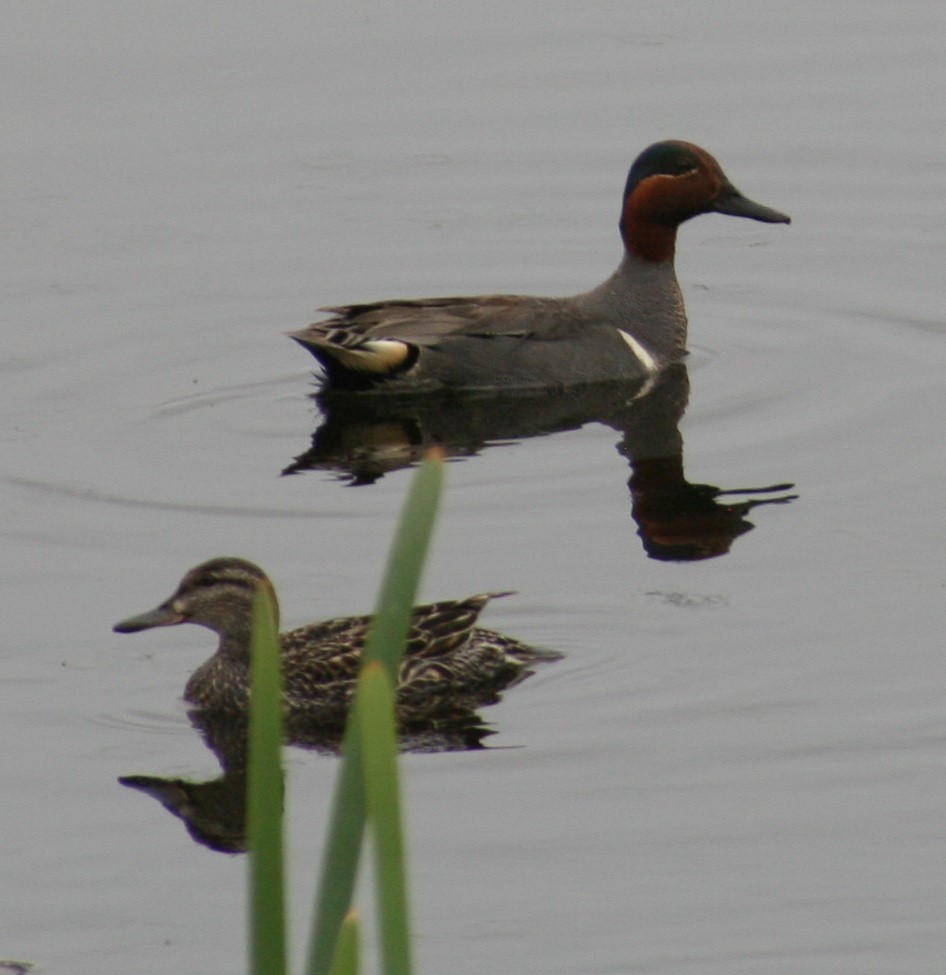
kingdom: Animalia
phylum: Chordata
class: Aves
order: Anseriformes
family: Anatidae
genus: Anas
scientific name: Anas crecca
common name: Eurasian teal
